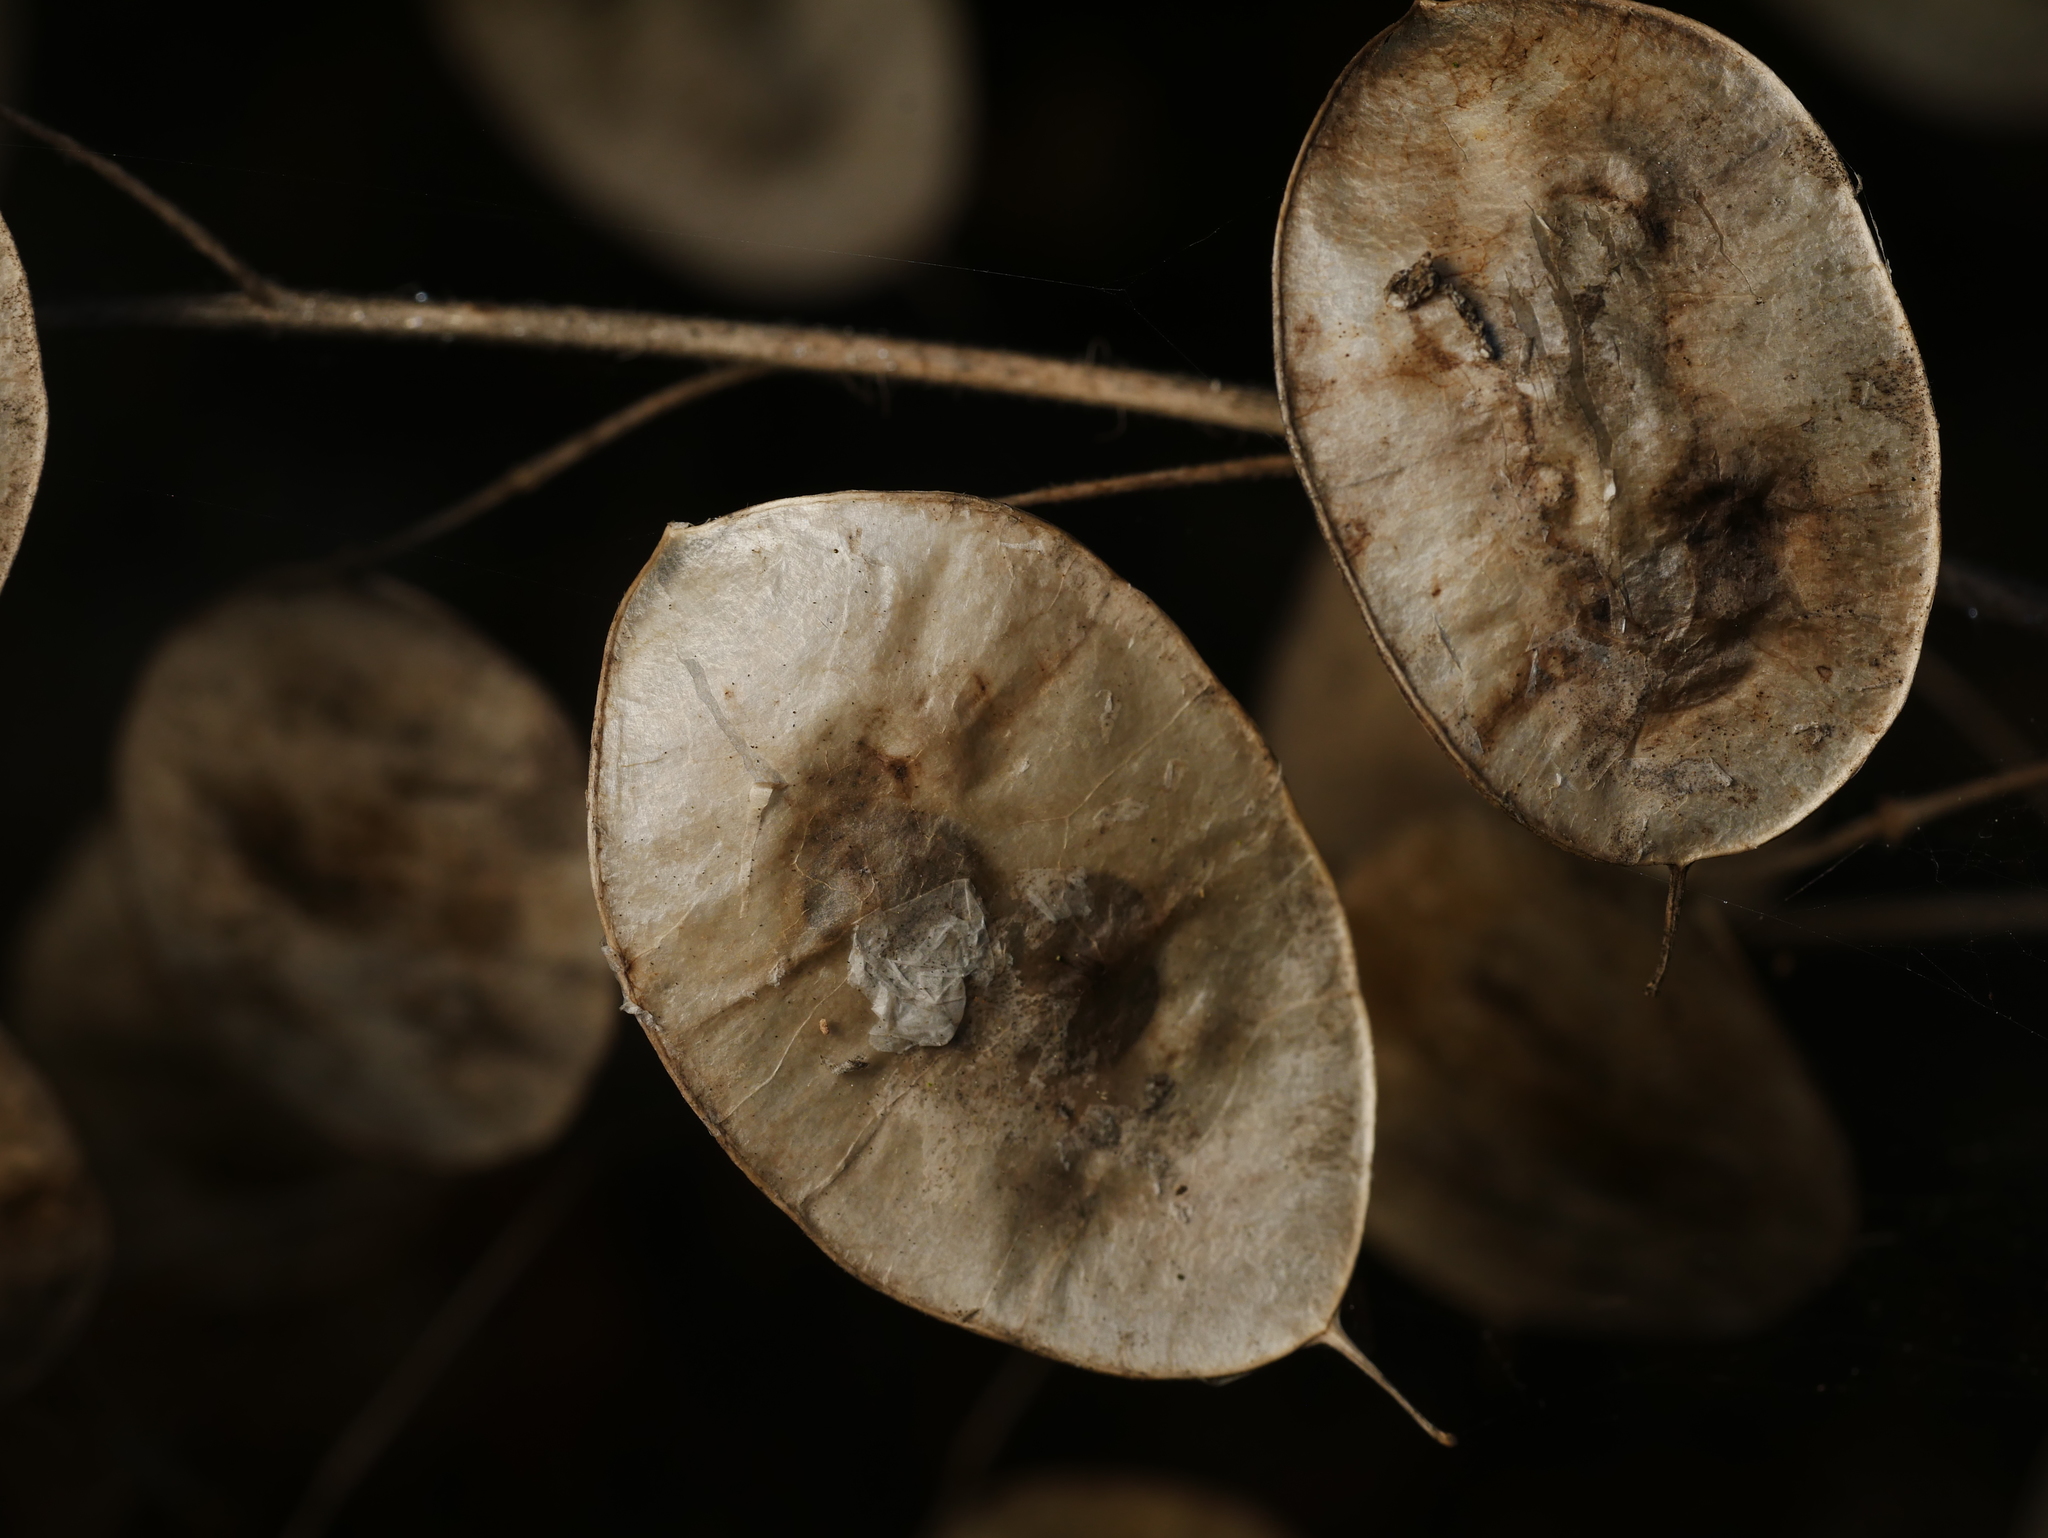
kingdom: Plantae
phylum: Tracheophyta
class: Magnoliopsida
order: Brassicales
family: Brassicaceae
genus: Lunaria
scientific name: Lunaria annua
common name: Honesty
